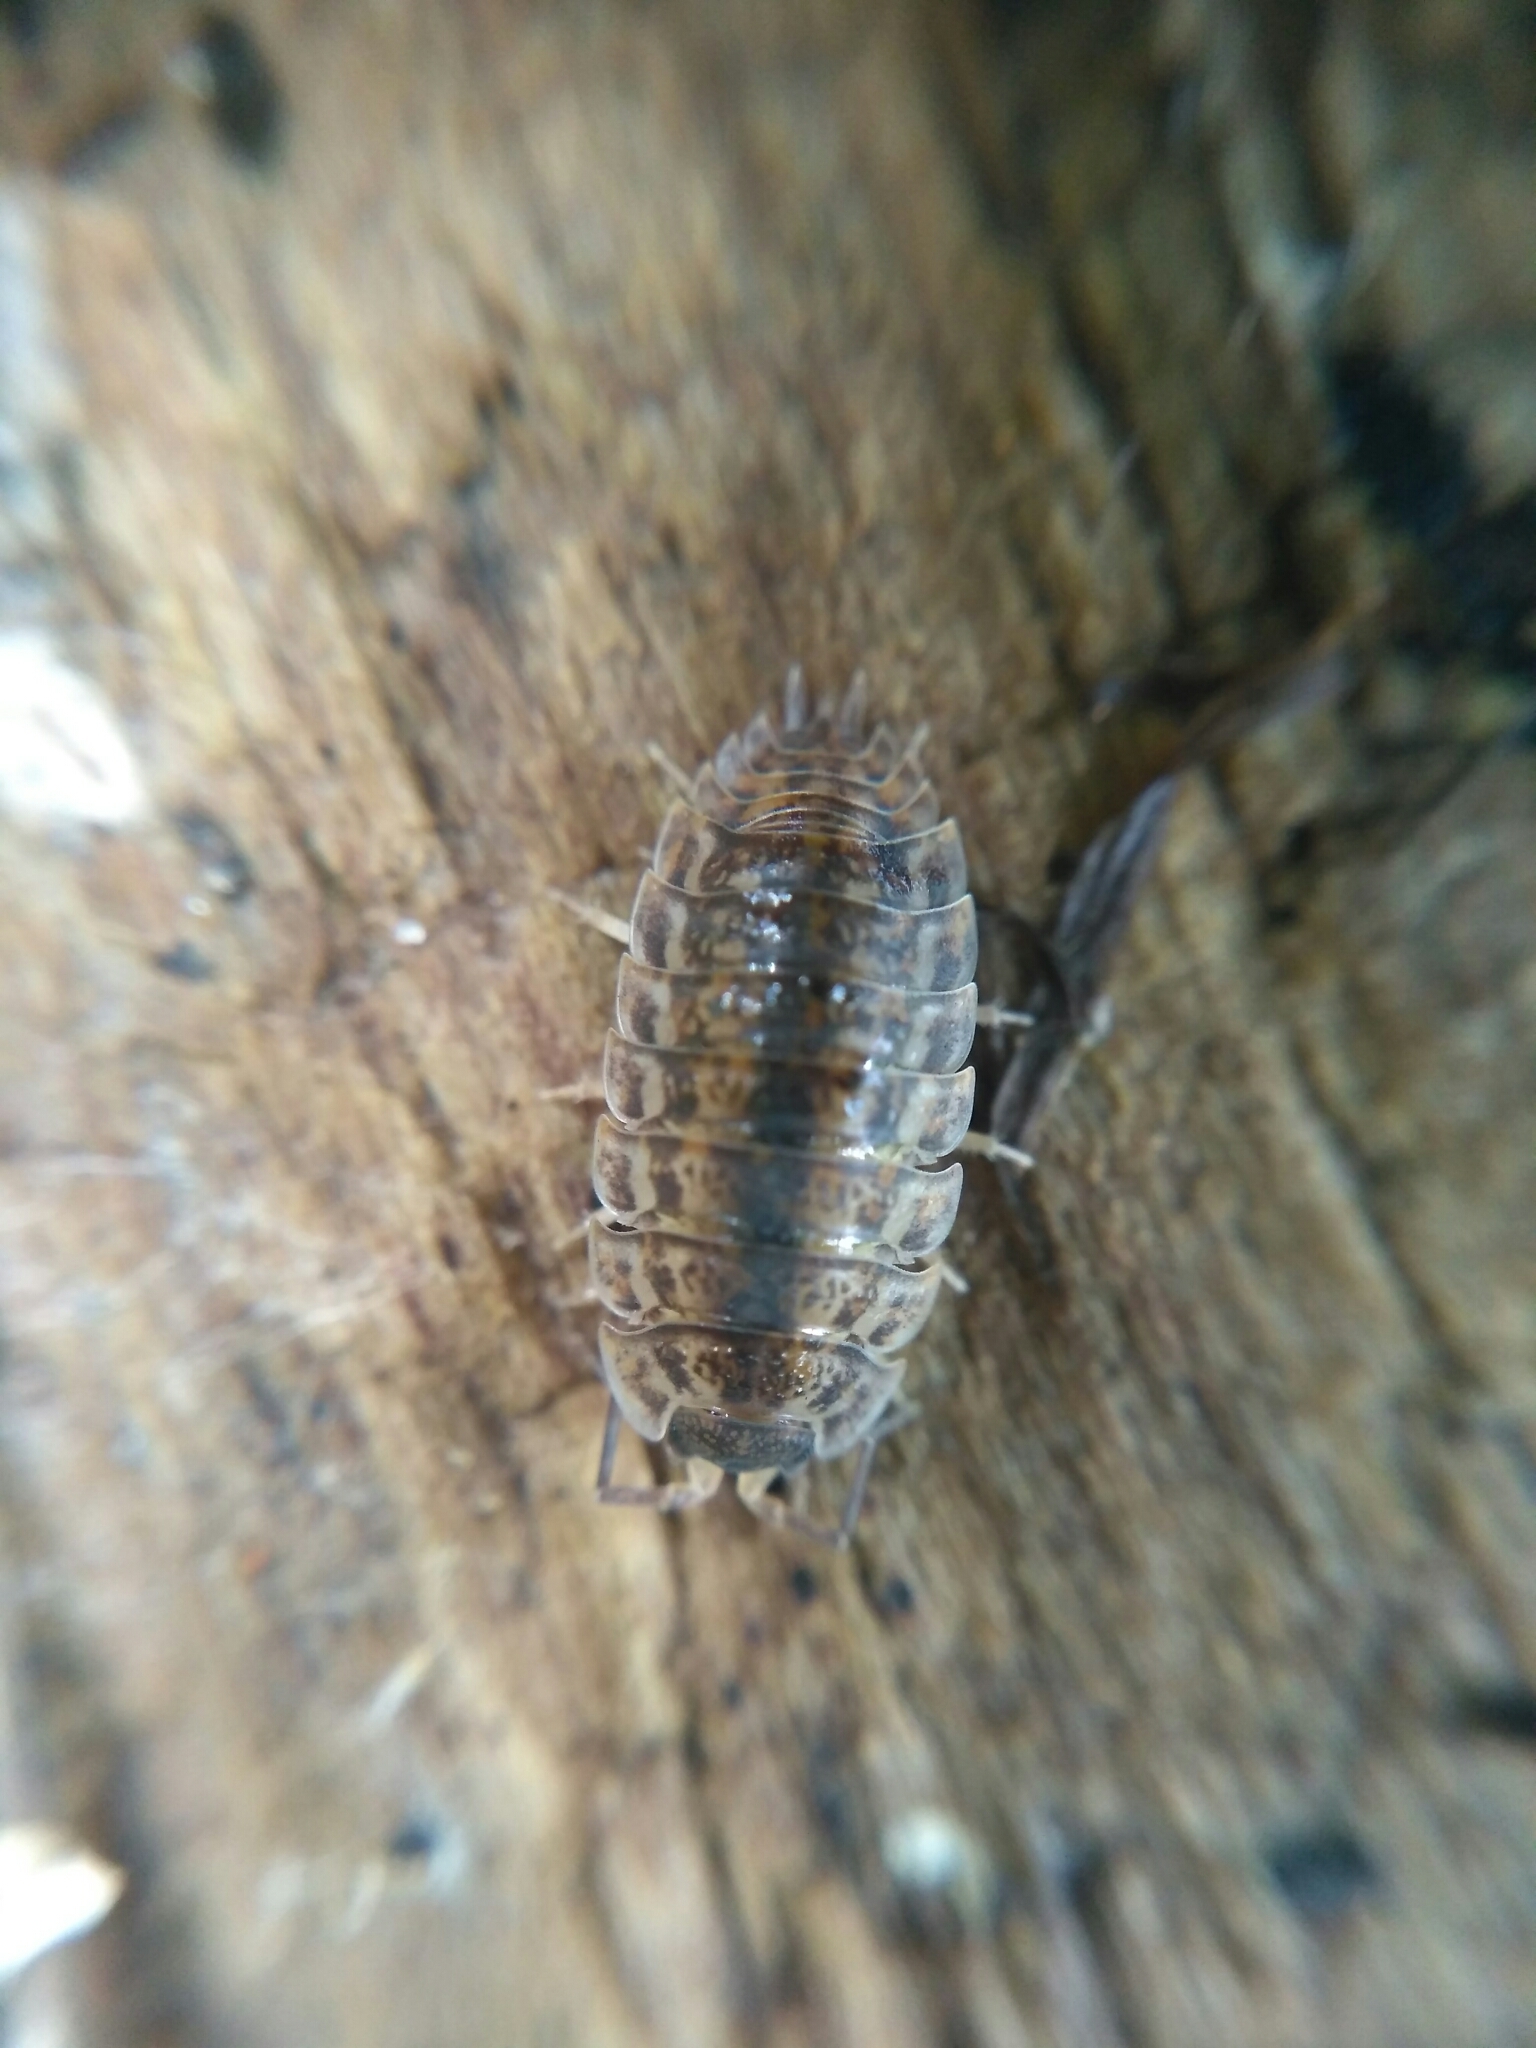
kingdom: Animalia
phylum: Arthropoda
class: Malacostraca
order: Isopoda
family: Trachelipodidae
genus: Trachelipus
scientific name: Trachelipus rathkii
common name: Isopod
